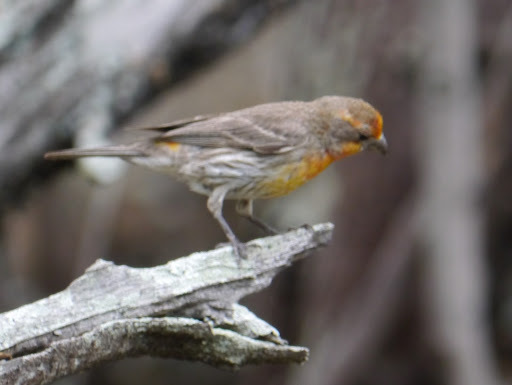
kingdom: Animalia
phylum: Chordata
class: Aves
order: Passeriformes
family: Fringillidae
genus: Haemorhous
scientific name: Haemorhous mexicanus
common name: House finch
